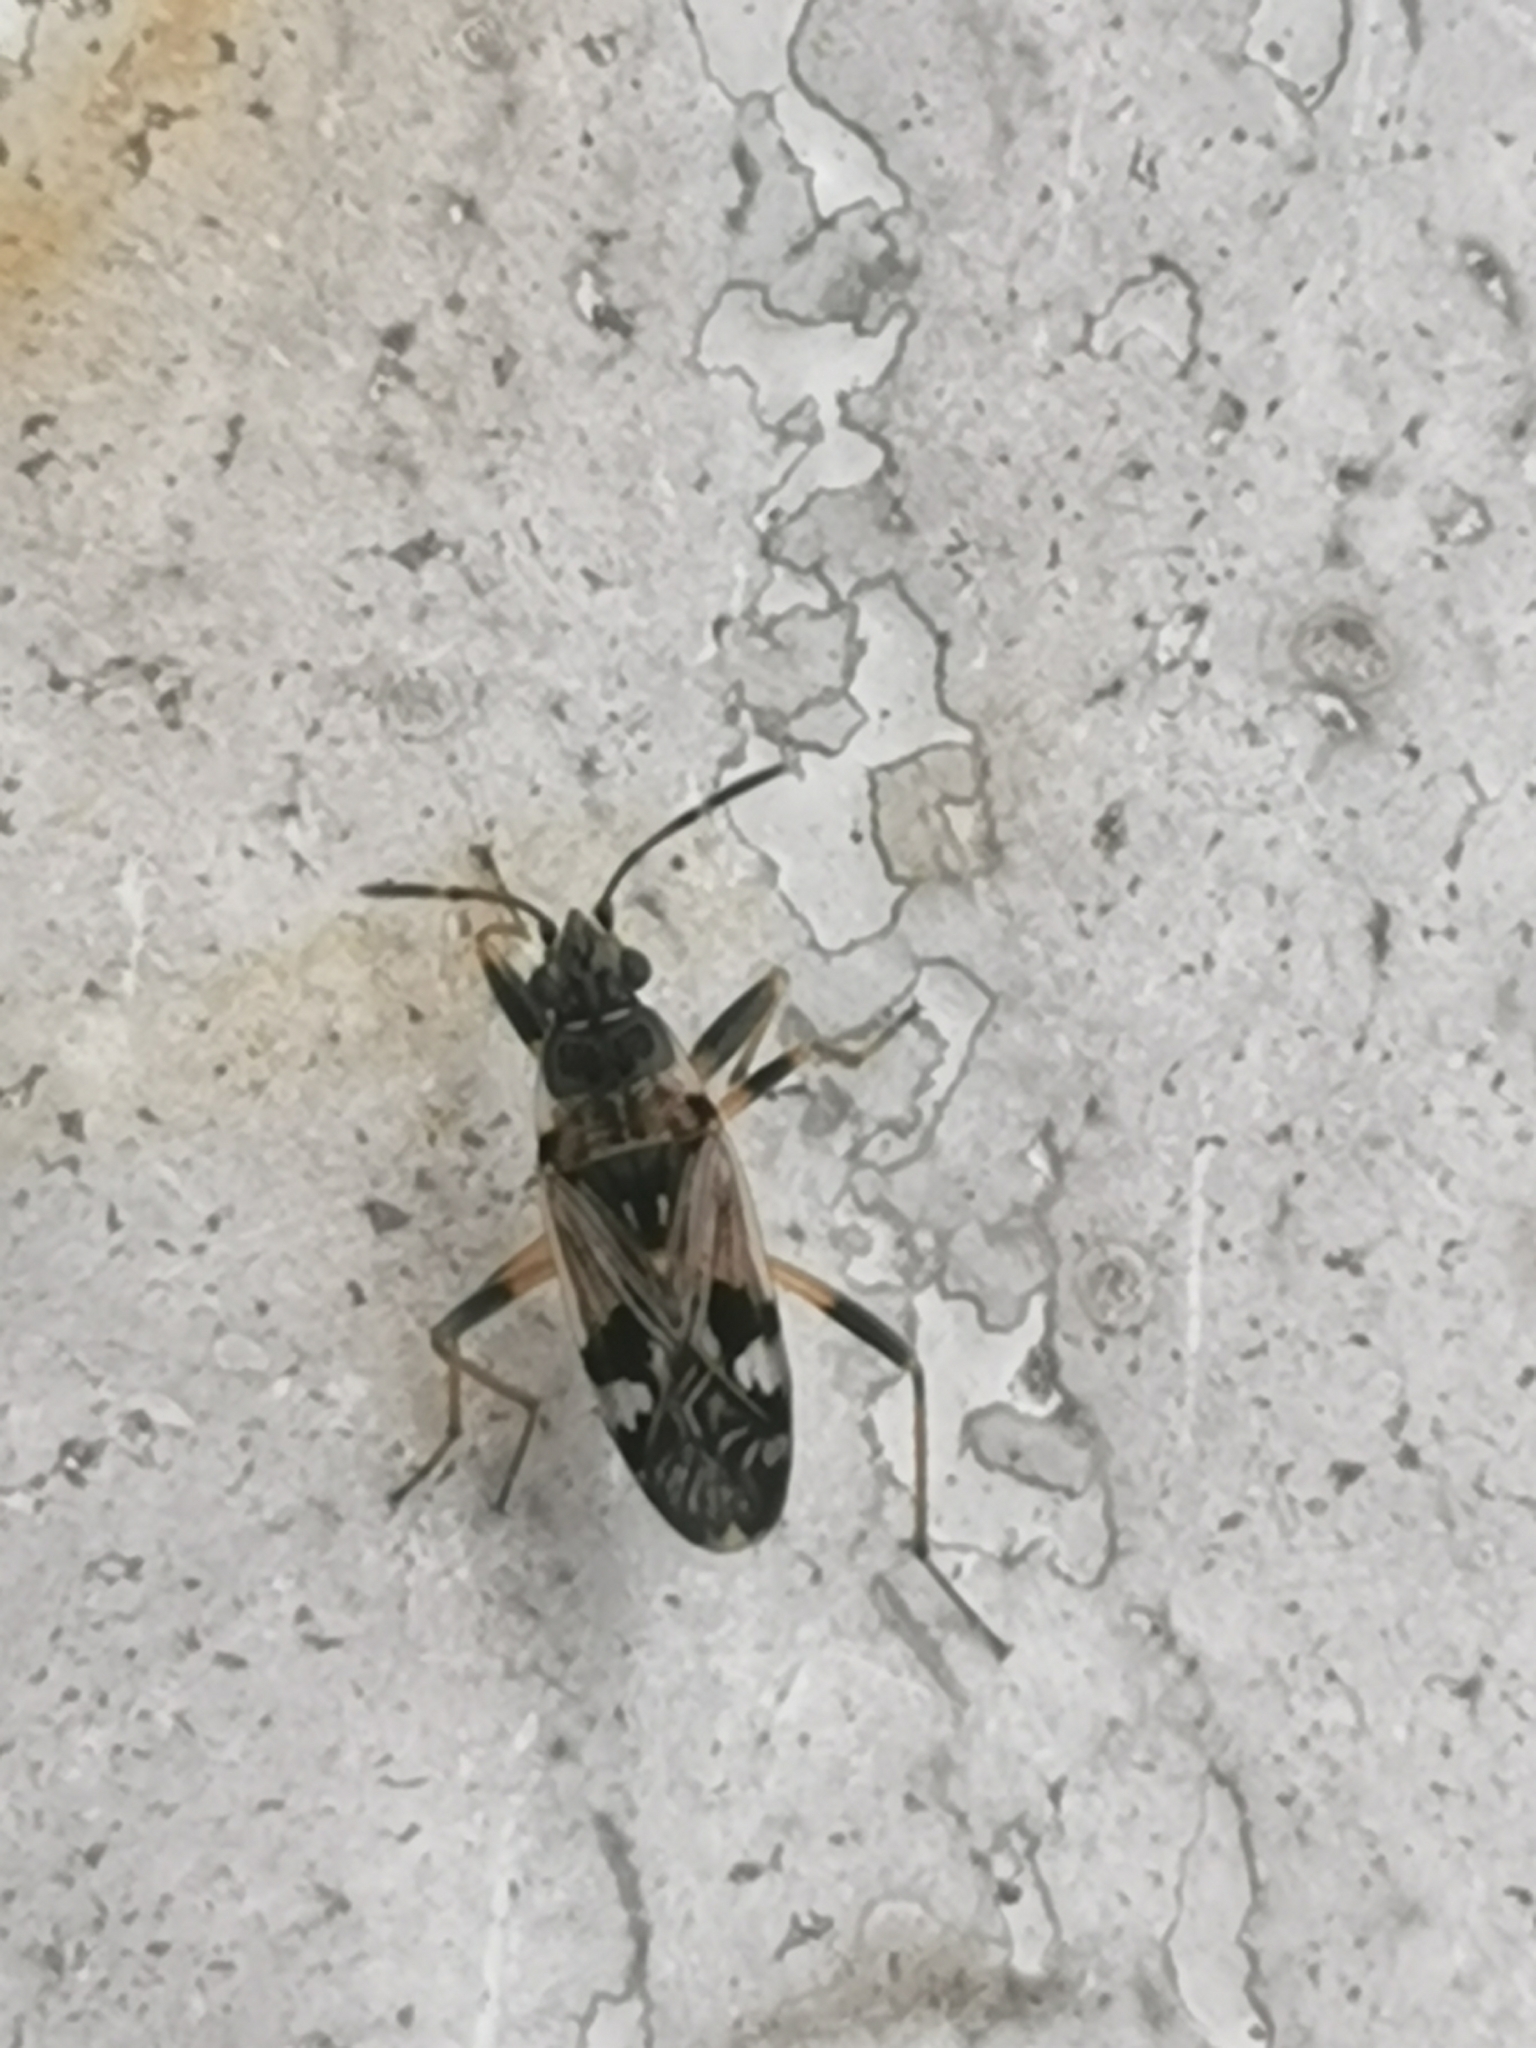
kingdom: Animalia
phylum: Arthropoda
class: Insecta
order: Hemiptera
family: Rhyparochromidae
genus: Beosus
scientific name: Beosus maritimus
